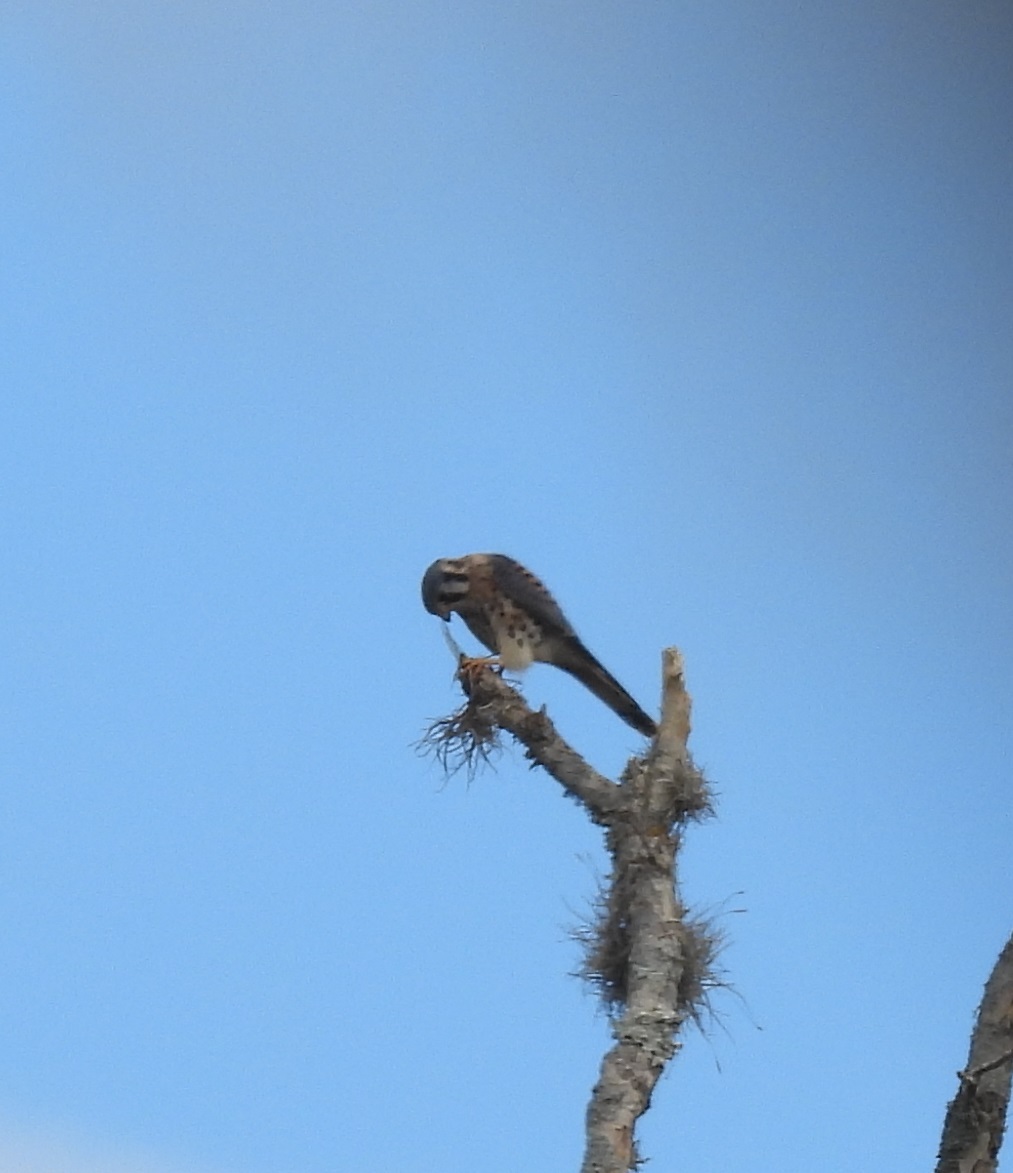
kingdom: Animalia
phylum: Chordata
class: Aves
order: Falconiformes
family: Falconidae
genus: Falco
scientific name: Falco sparverius
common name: American kestrel
